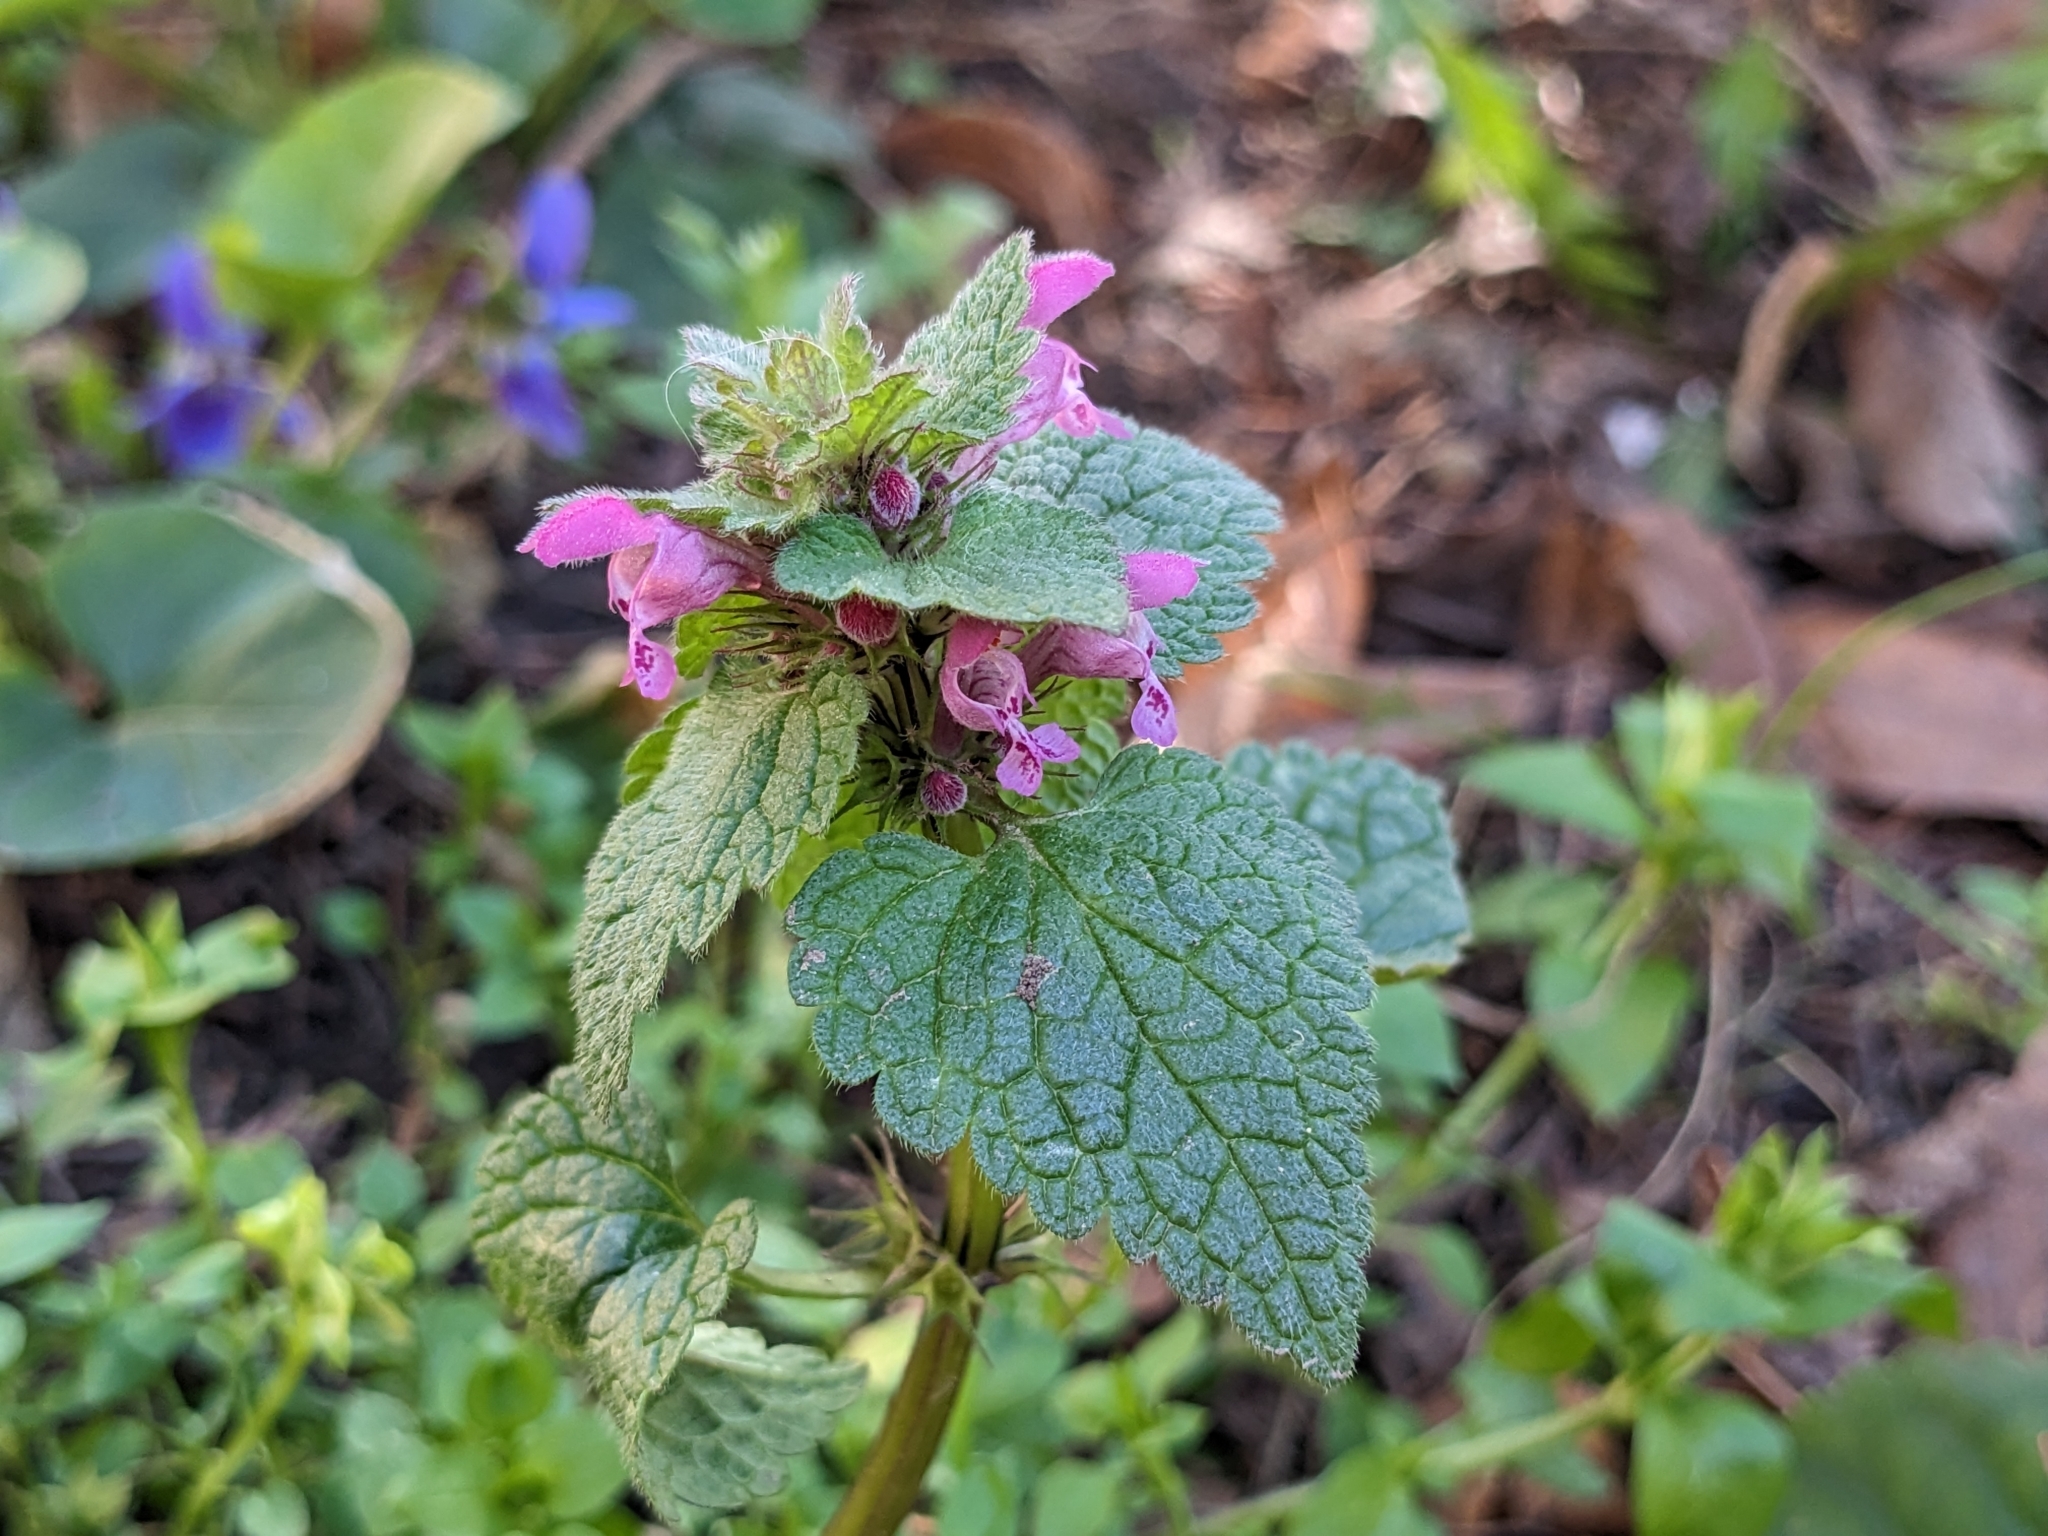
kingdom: Plantae
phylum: Tracheophyta
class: Magnoliopsida
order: Lamiales
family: Lamiaceae
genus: Lamium
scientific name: Lamium purpureum
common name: Red dead-nettle
